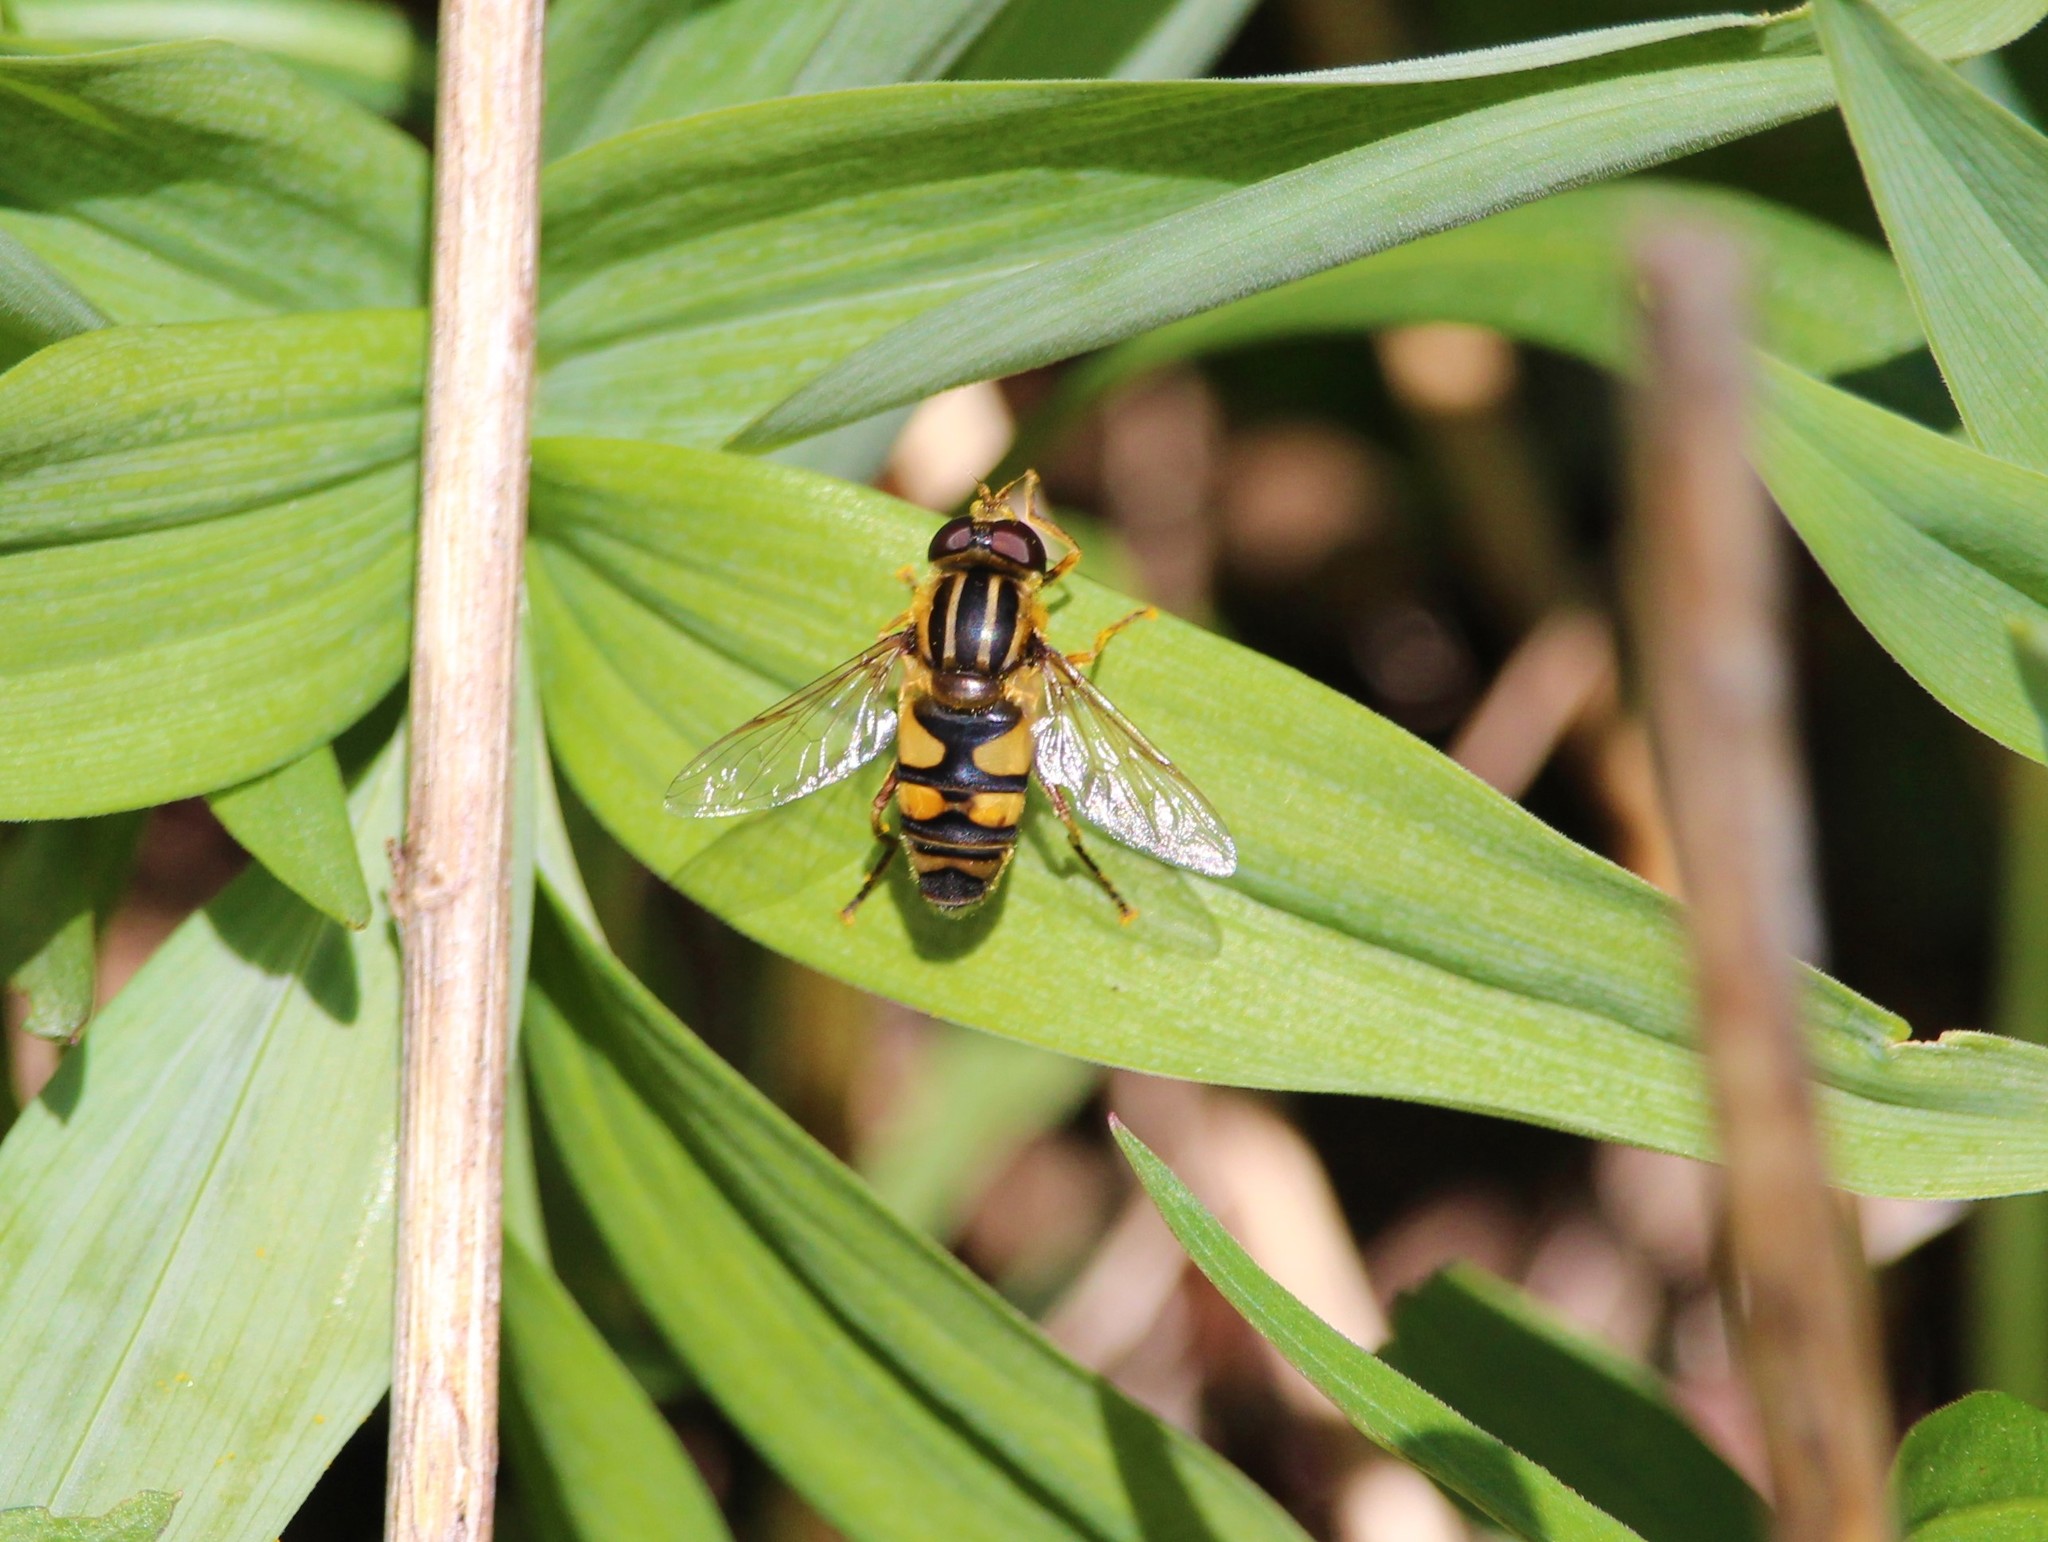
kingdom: Animalia
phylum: Arthropoda
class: Insecta
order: Diptera
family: Syrphidae
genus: Helophilus
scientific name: Helophilus fasciatus
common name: Narrow-headed marsh fly
